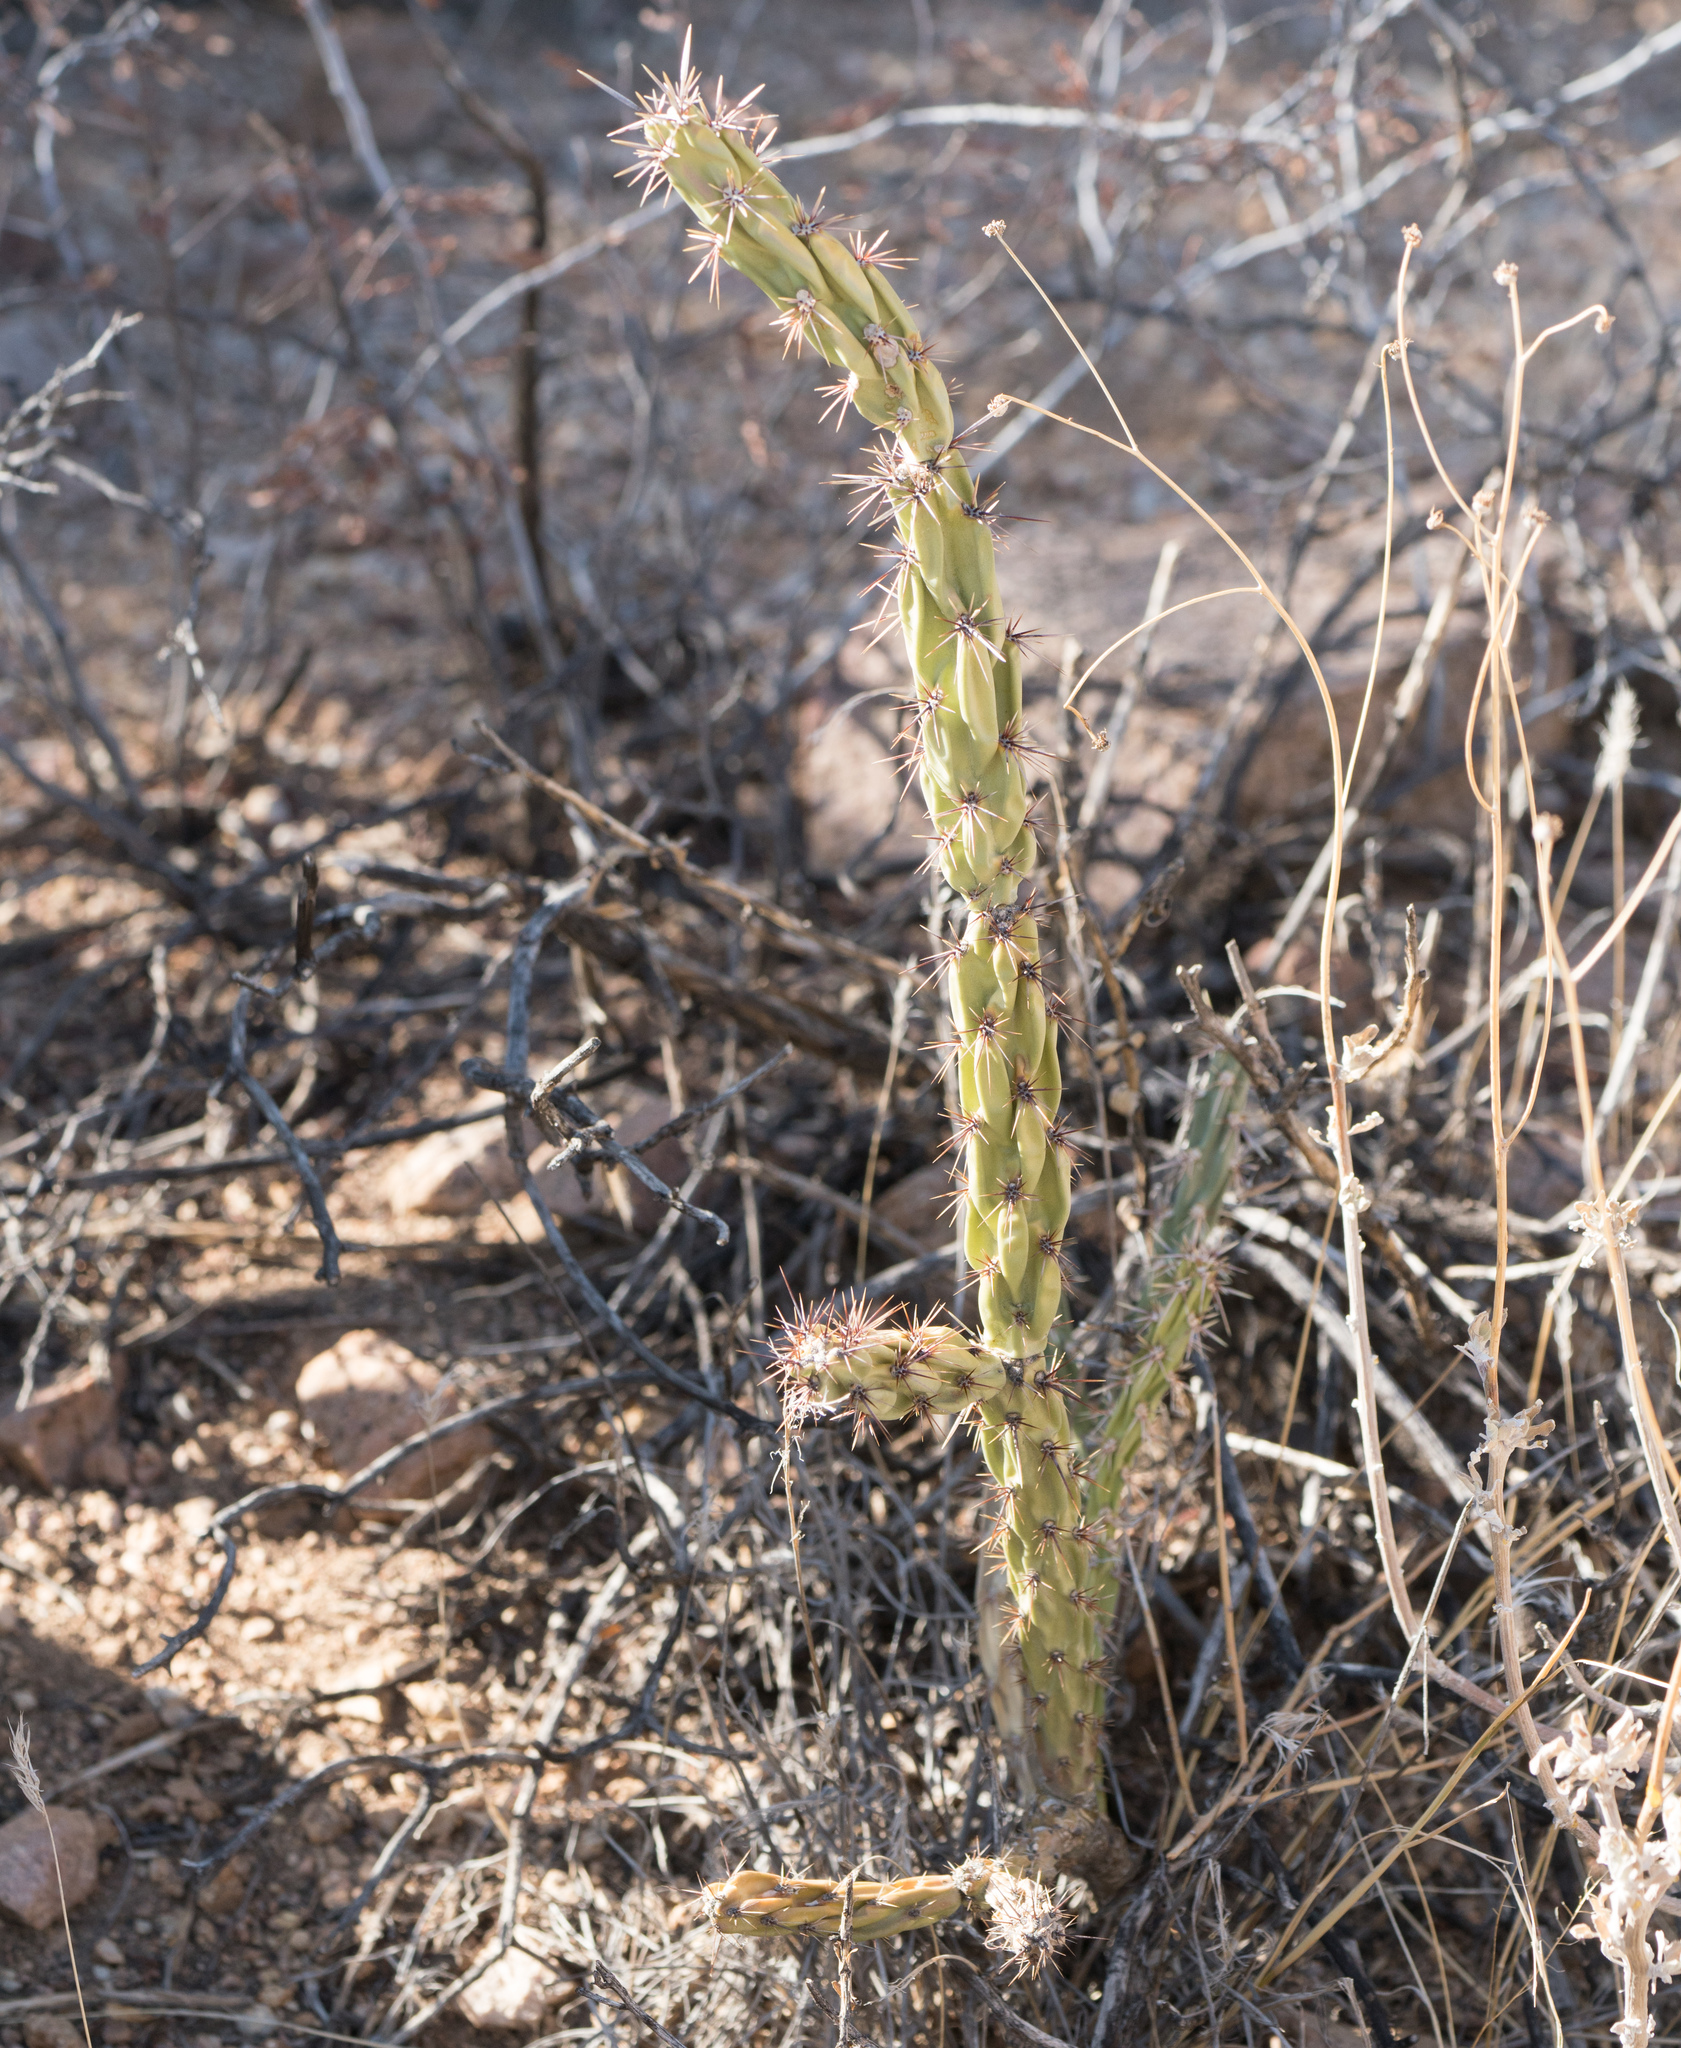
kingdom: Plantae
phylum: Tracheophyta
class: Magnoliopsida
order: Caryophyllales
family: Cactaceae
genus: Cylindropuntia
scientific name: Cylindropuntia acanthocarpa
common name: Buckhorn cholla
